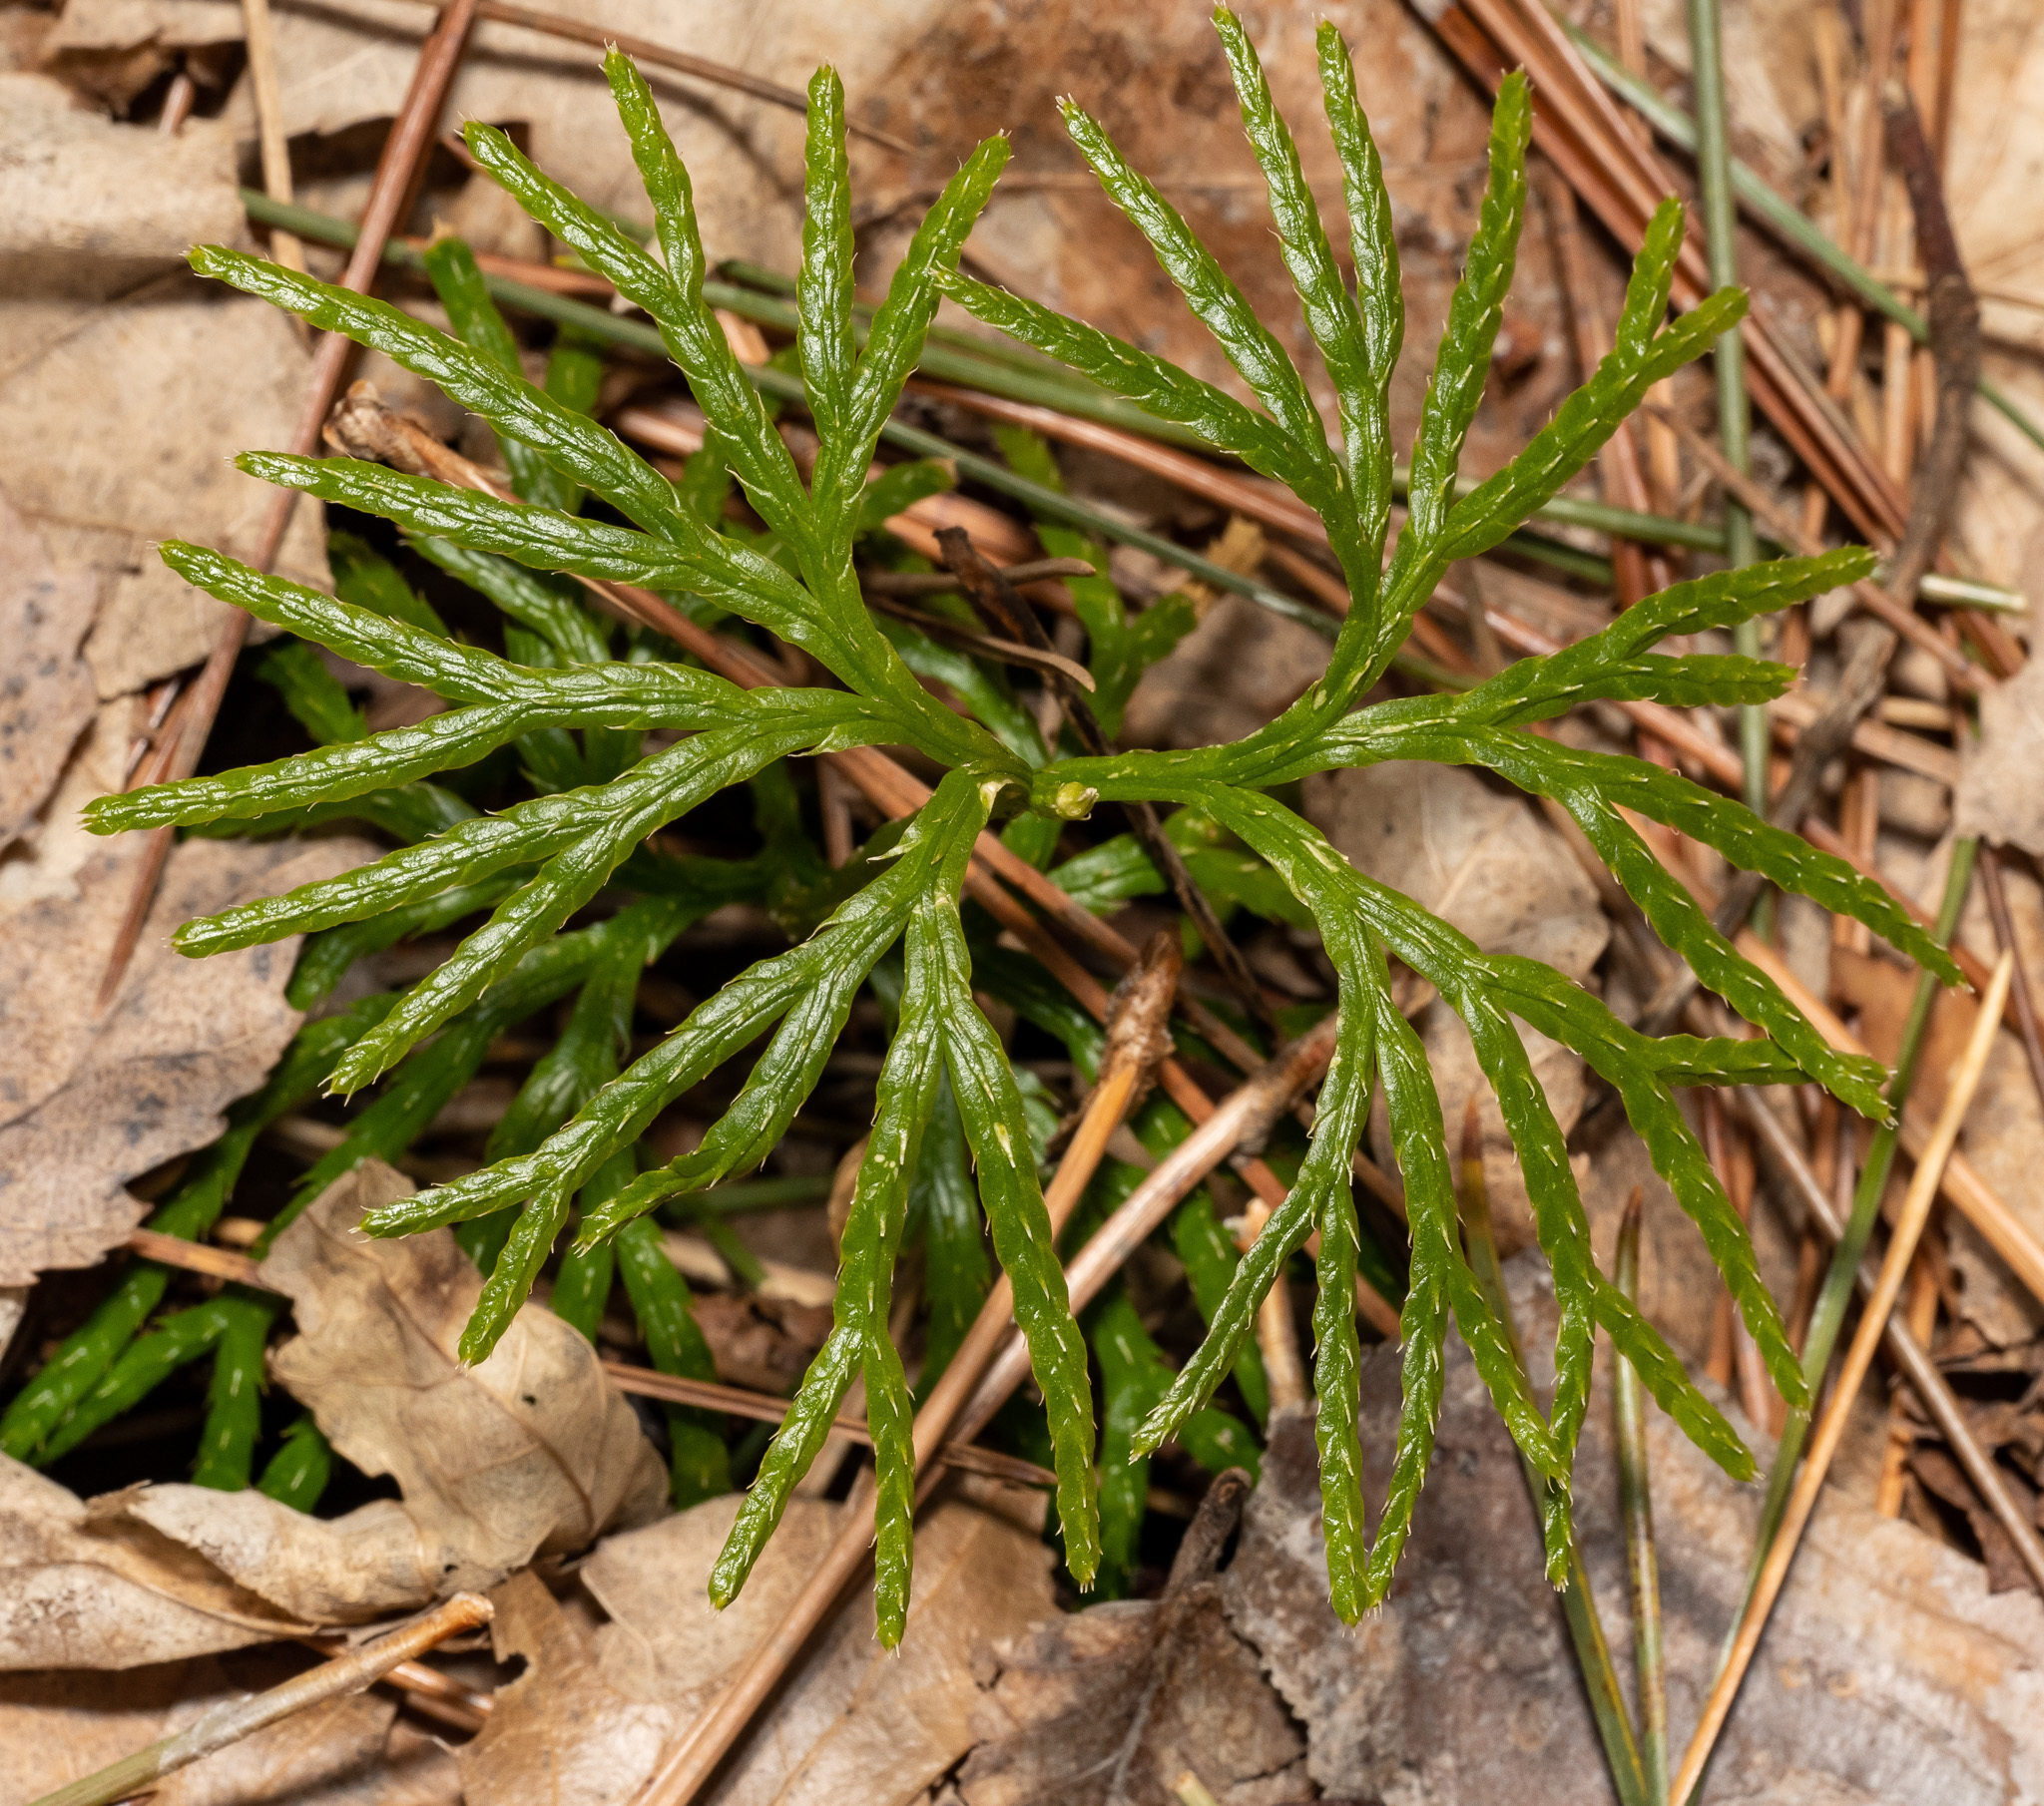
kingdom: Plantae
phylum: Tracheophyta
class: Lycopodiopsida
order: Lycopodiales
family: Lycopodiaceae
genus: Diphasiastrum
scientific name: Diphasiastrum digitatum
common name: Southern running-pine
